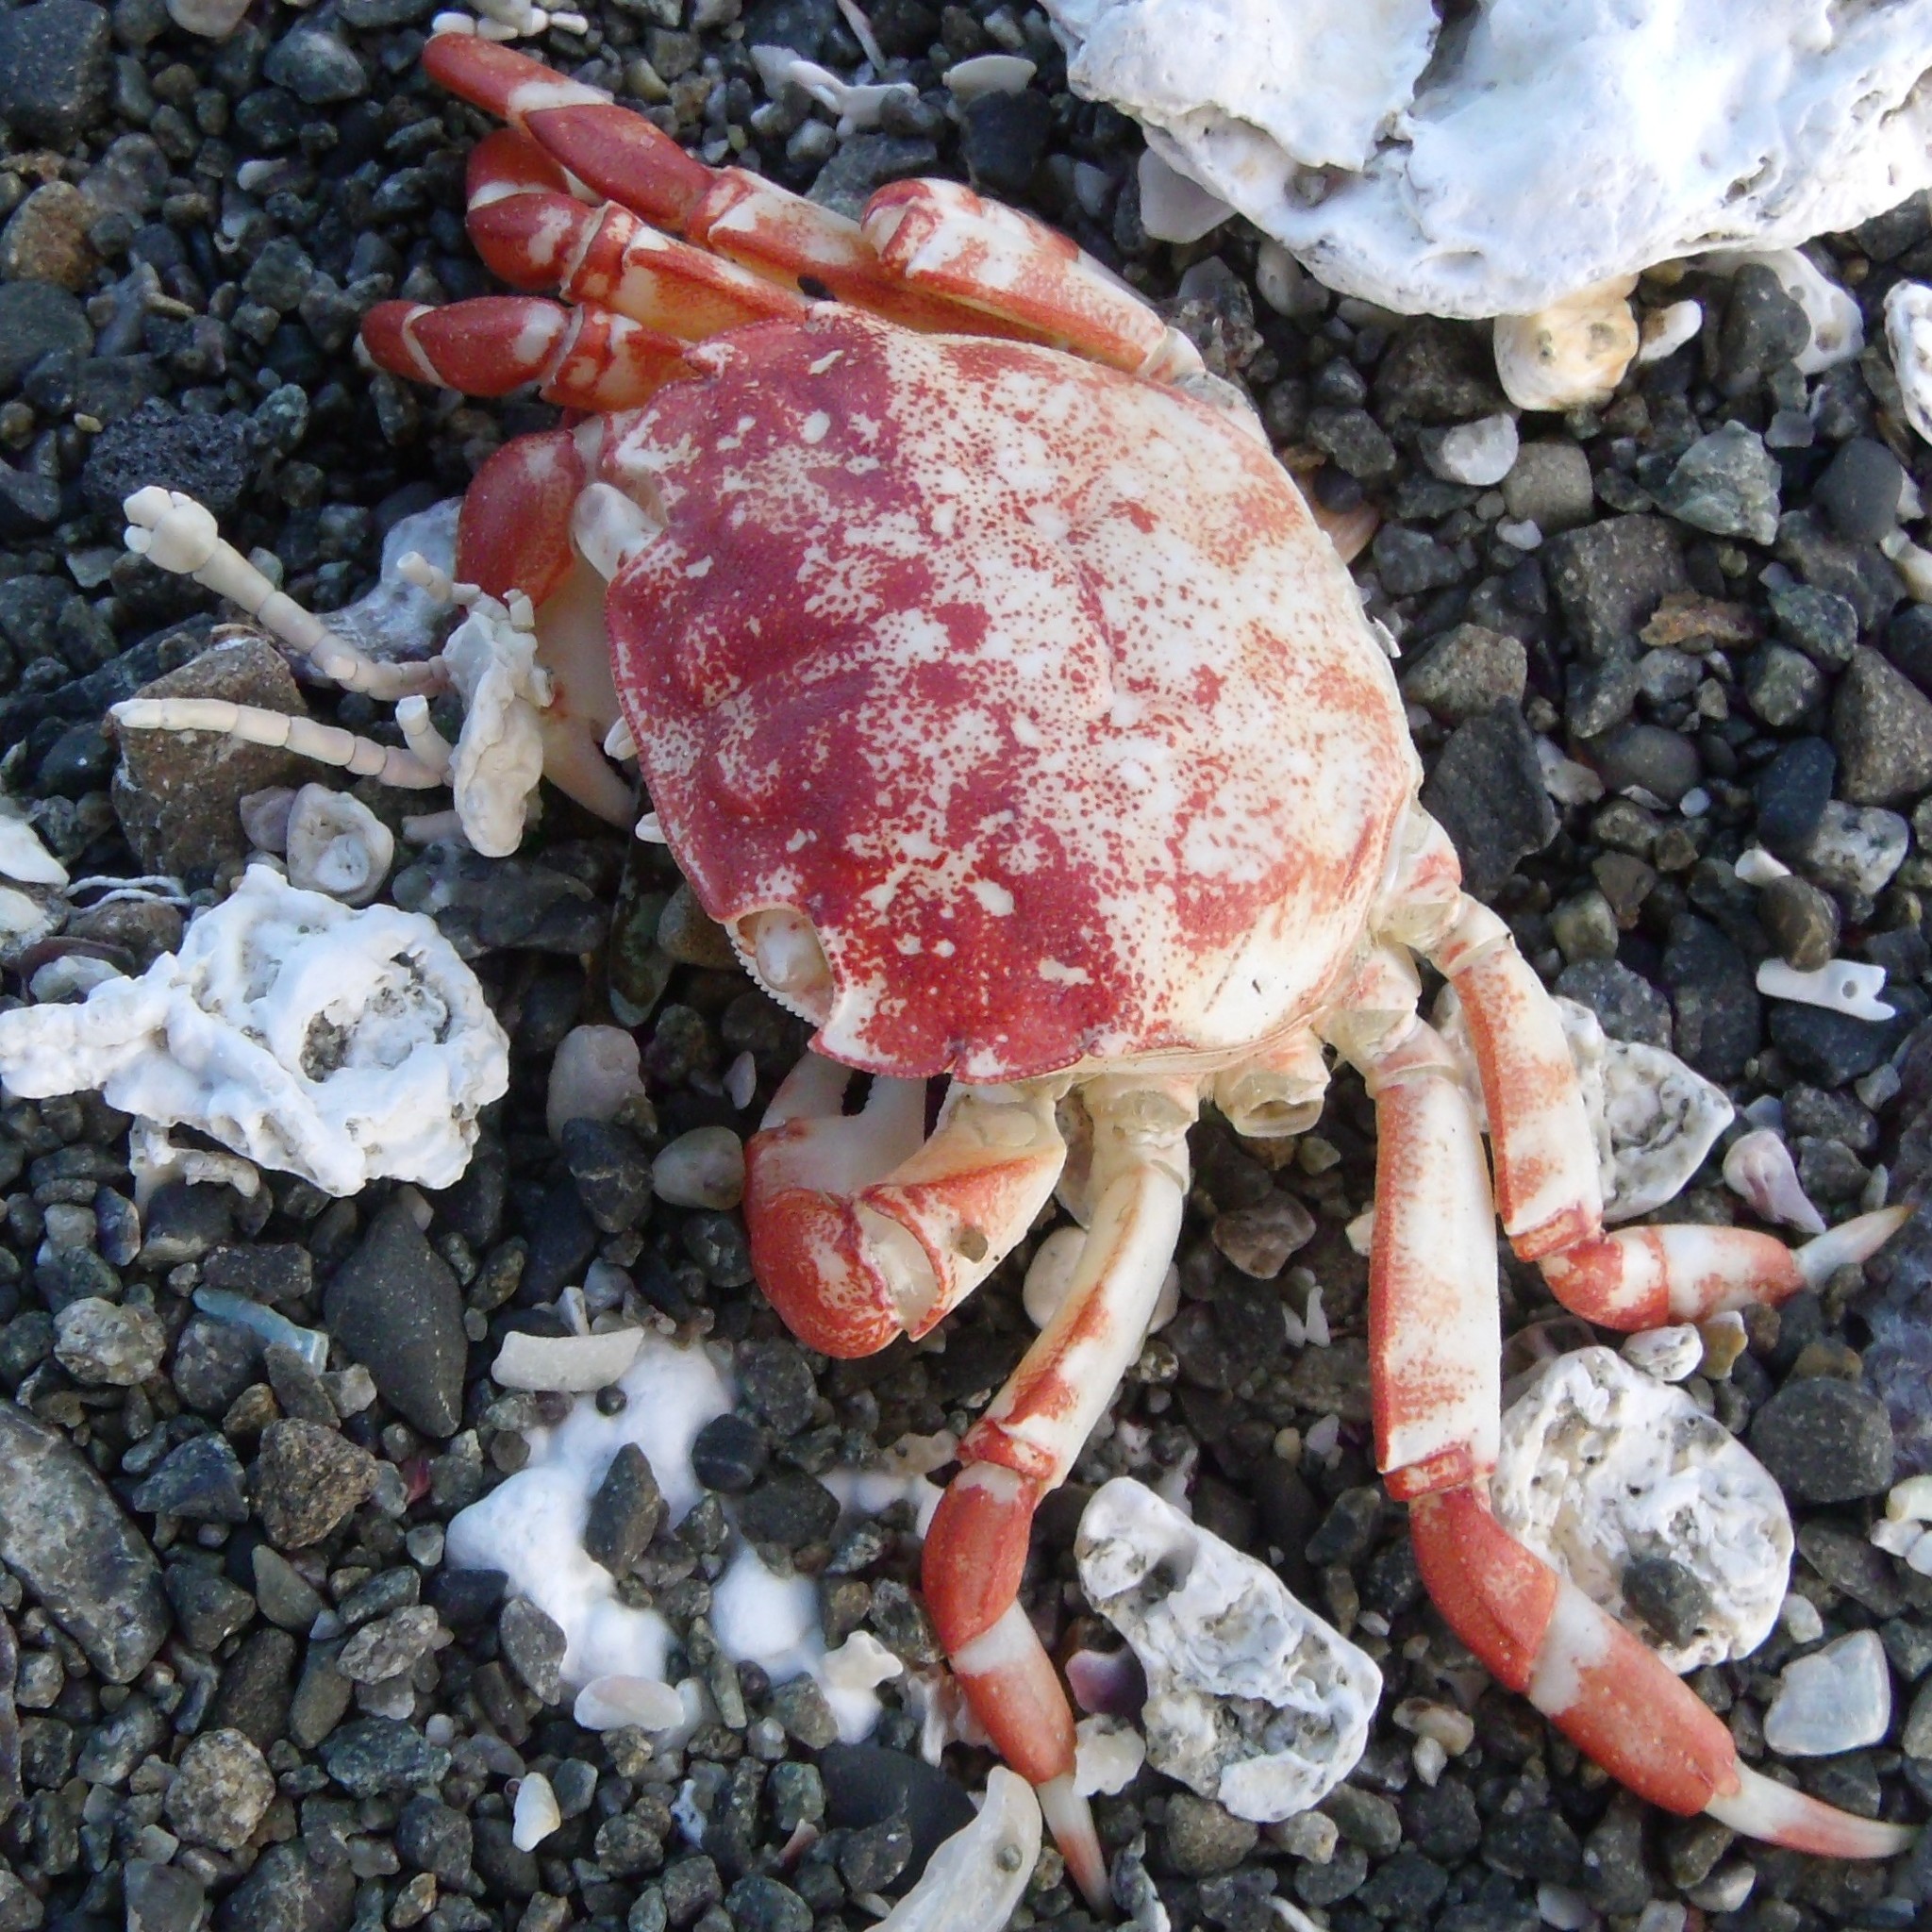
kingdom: Animalia
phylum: Arthropoda
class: Malacostraca
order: Decapoda
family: Varunidae
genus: Hemigrapsus
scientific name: Hemigrapsus sexdentatus
